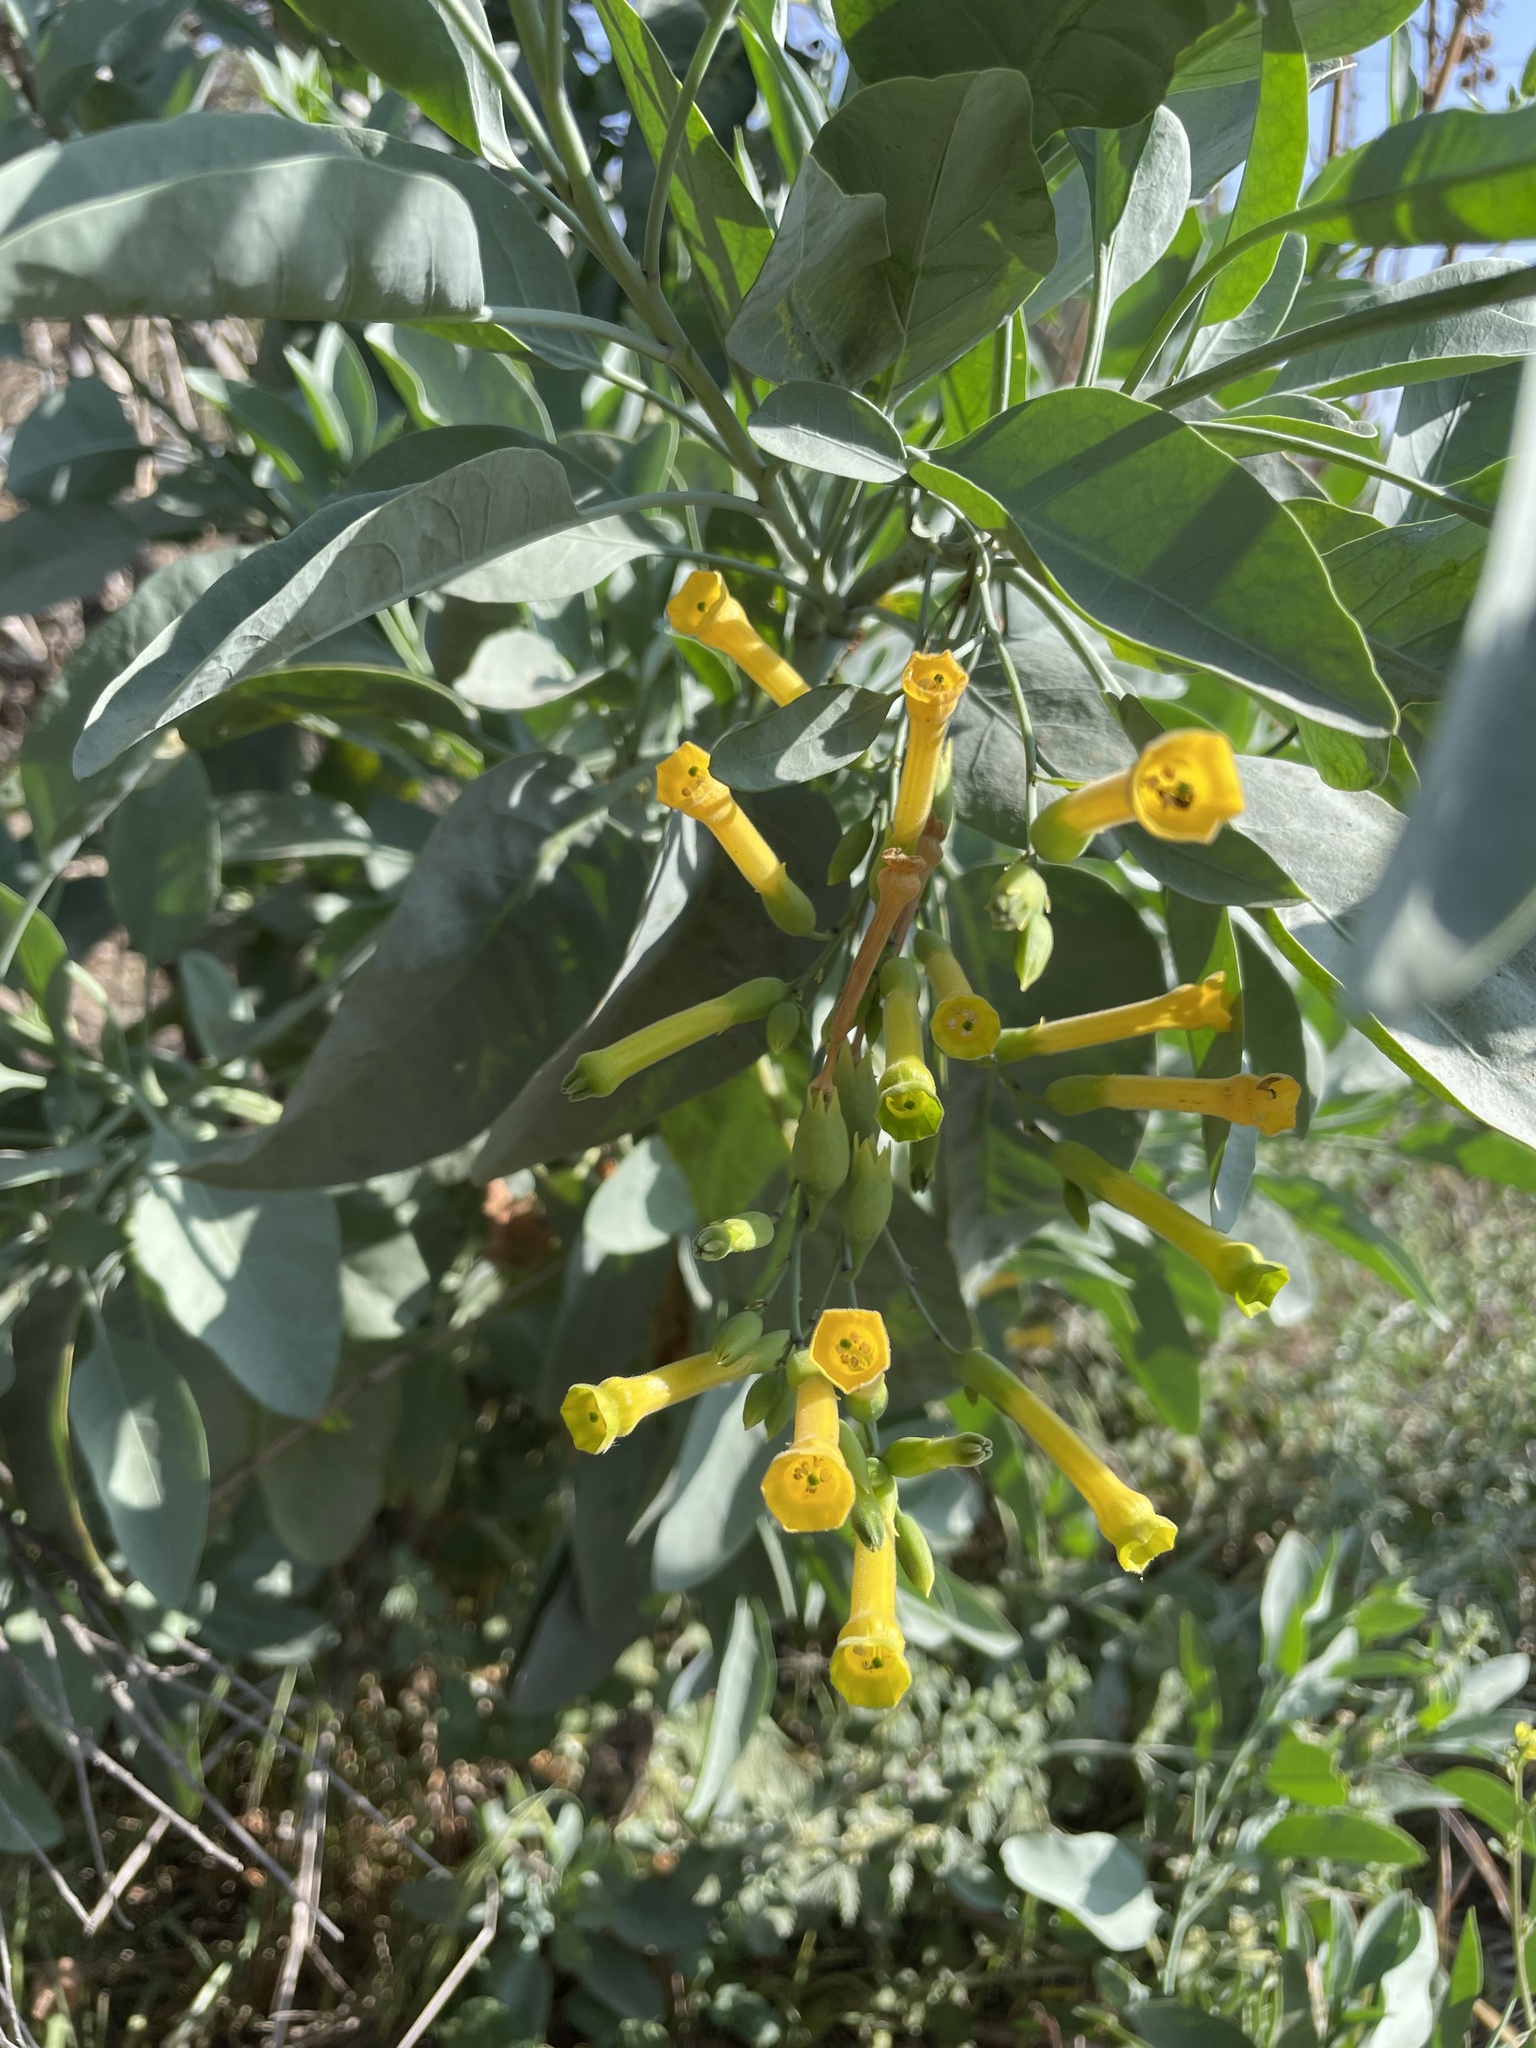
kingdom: Plantae
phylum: Tracheophyta
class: Magnoliopsida
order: Solanales
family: Solanaceae
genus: Nicotiana
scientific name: Nicotiana glauca
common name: Tree tobacco
